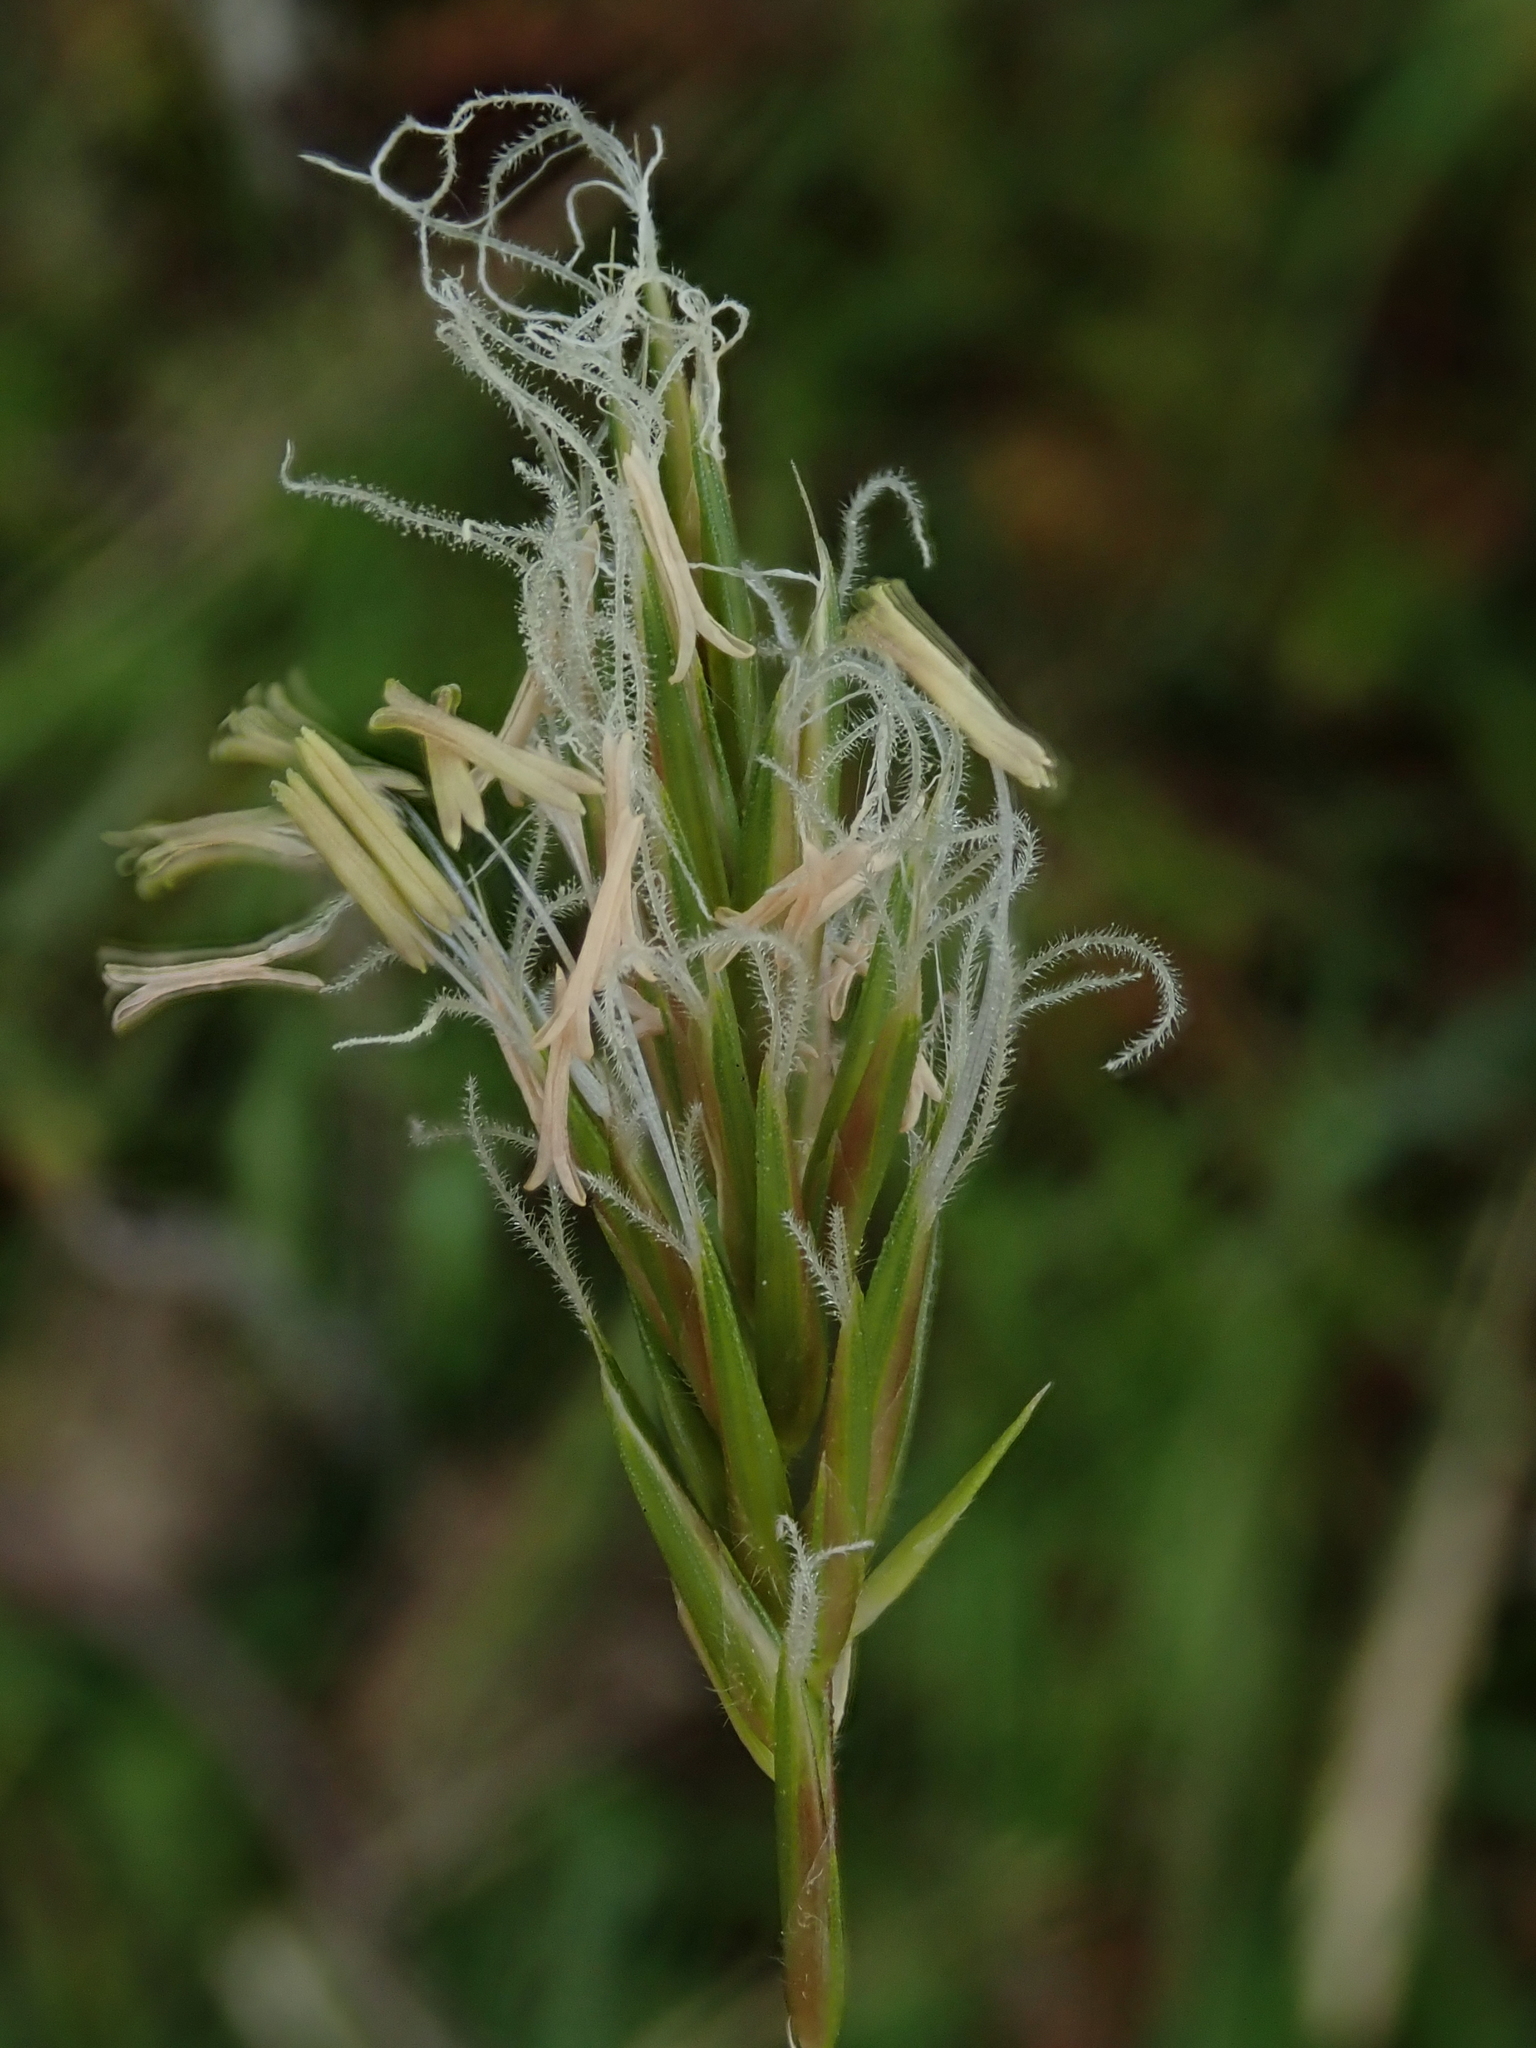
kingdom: Plantae
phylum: Tracheophyta
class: Liliopsida
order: Poales
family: Poaceae
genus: Anthoxanthum
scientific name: Anthoxanthum odoratum
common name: Sweet vernalgrass
